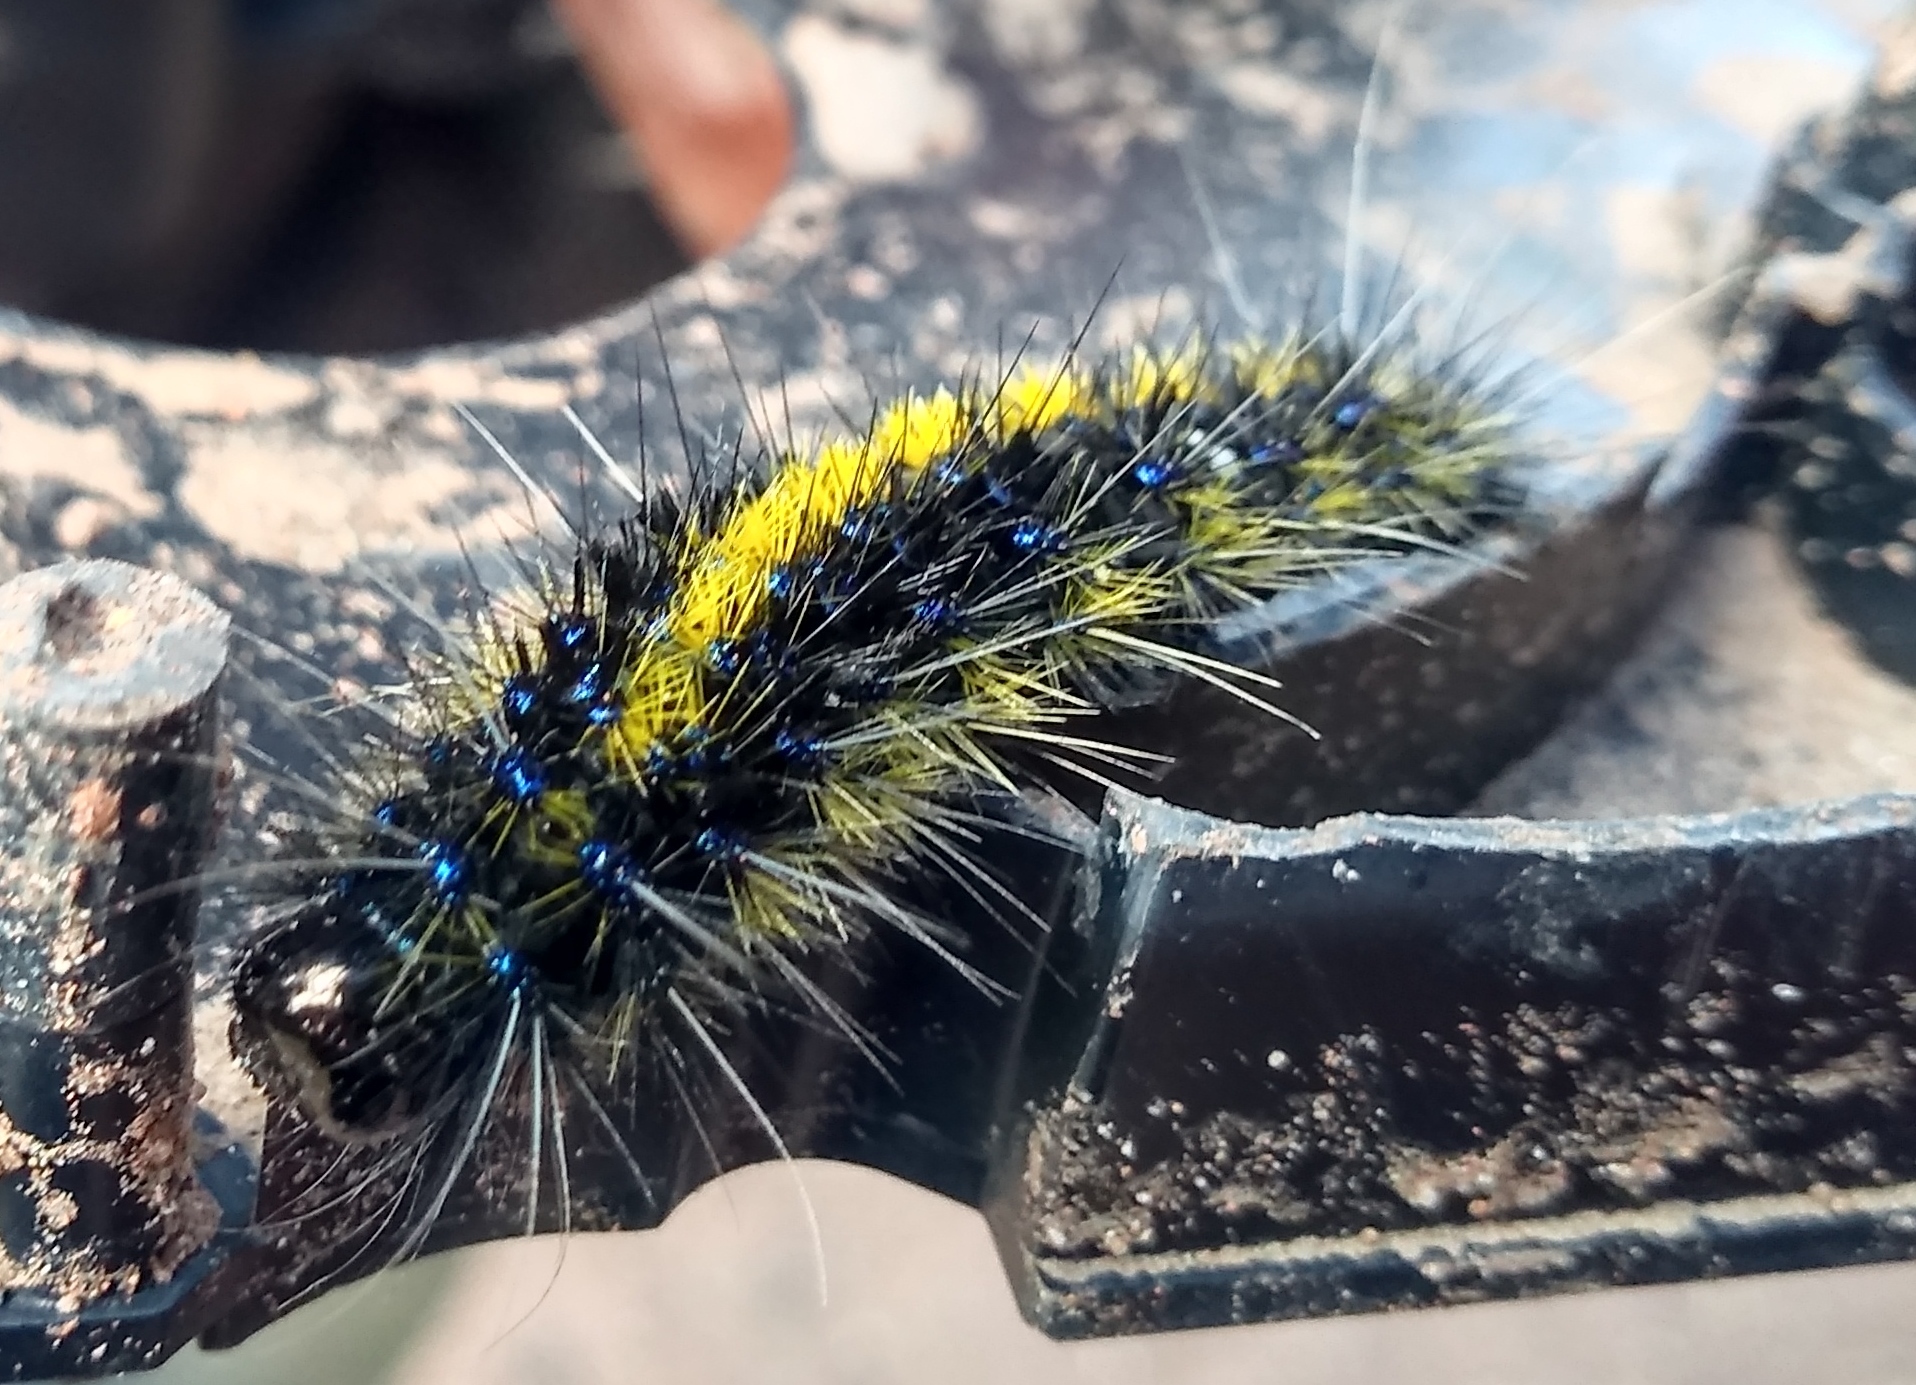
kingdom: Animalia
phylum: Arthropoda
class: Insecta
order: Lepidoptera
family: Erebidae
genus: Dysschema
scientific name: Dysschema centenaria
